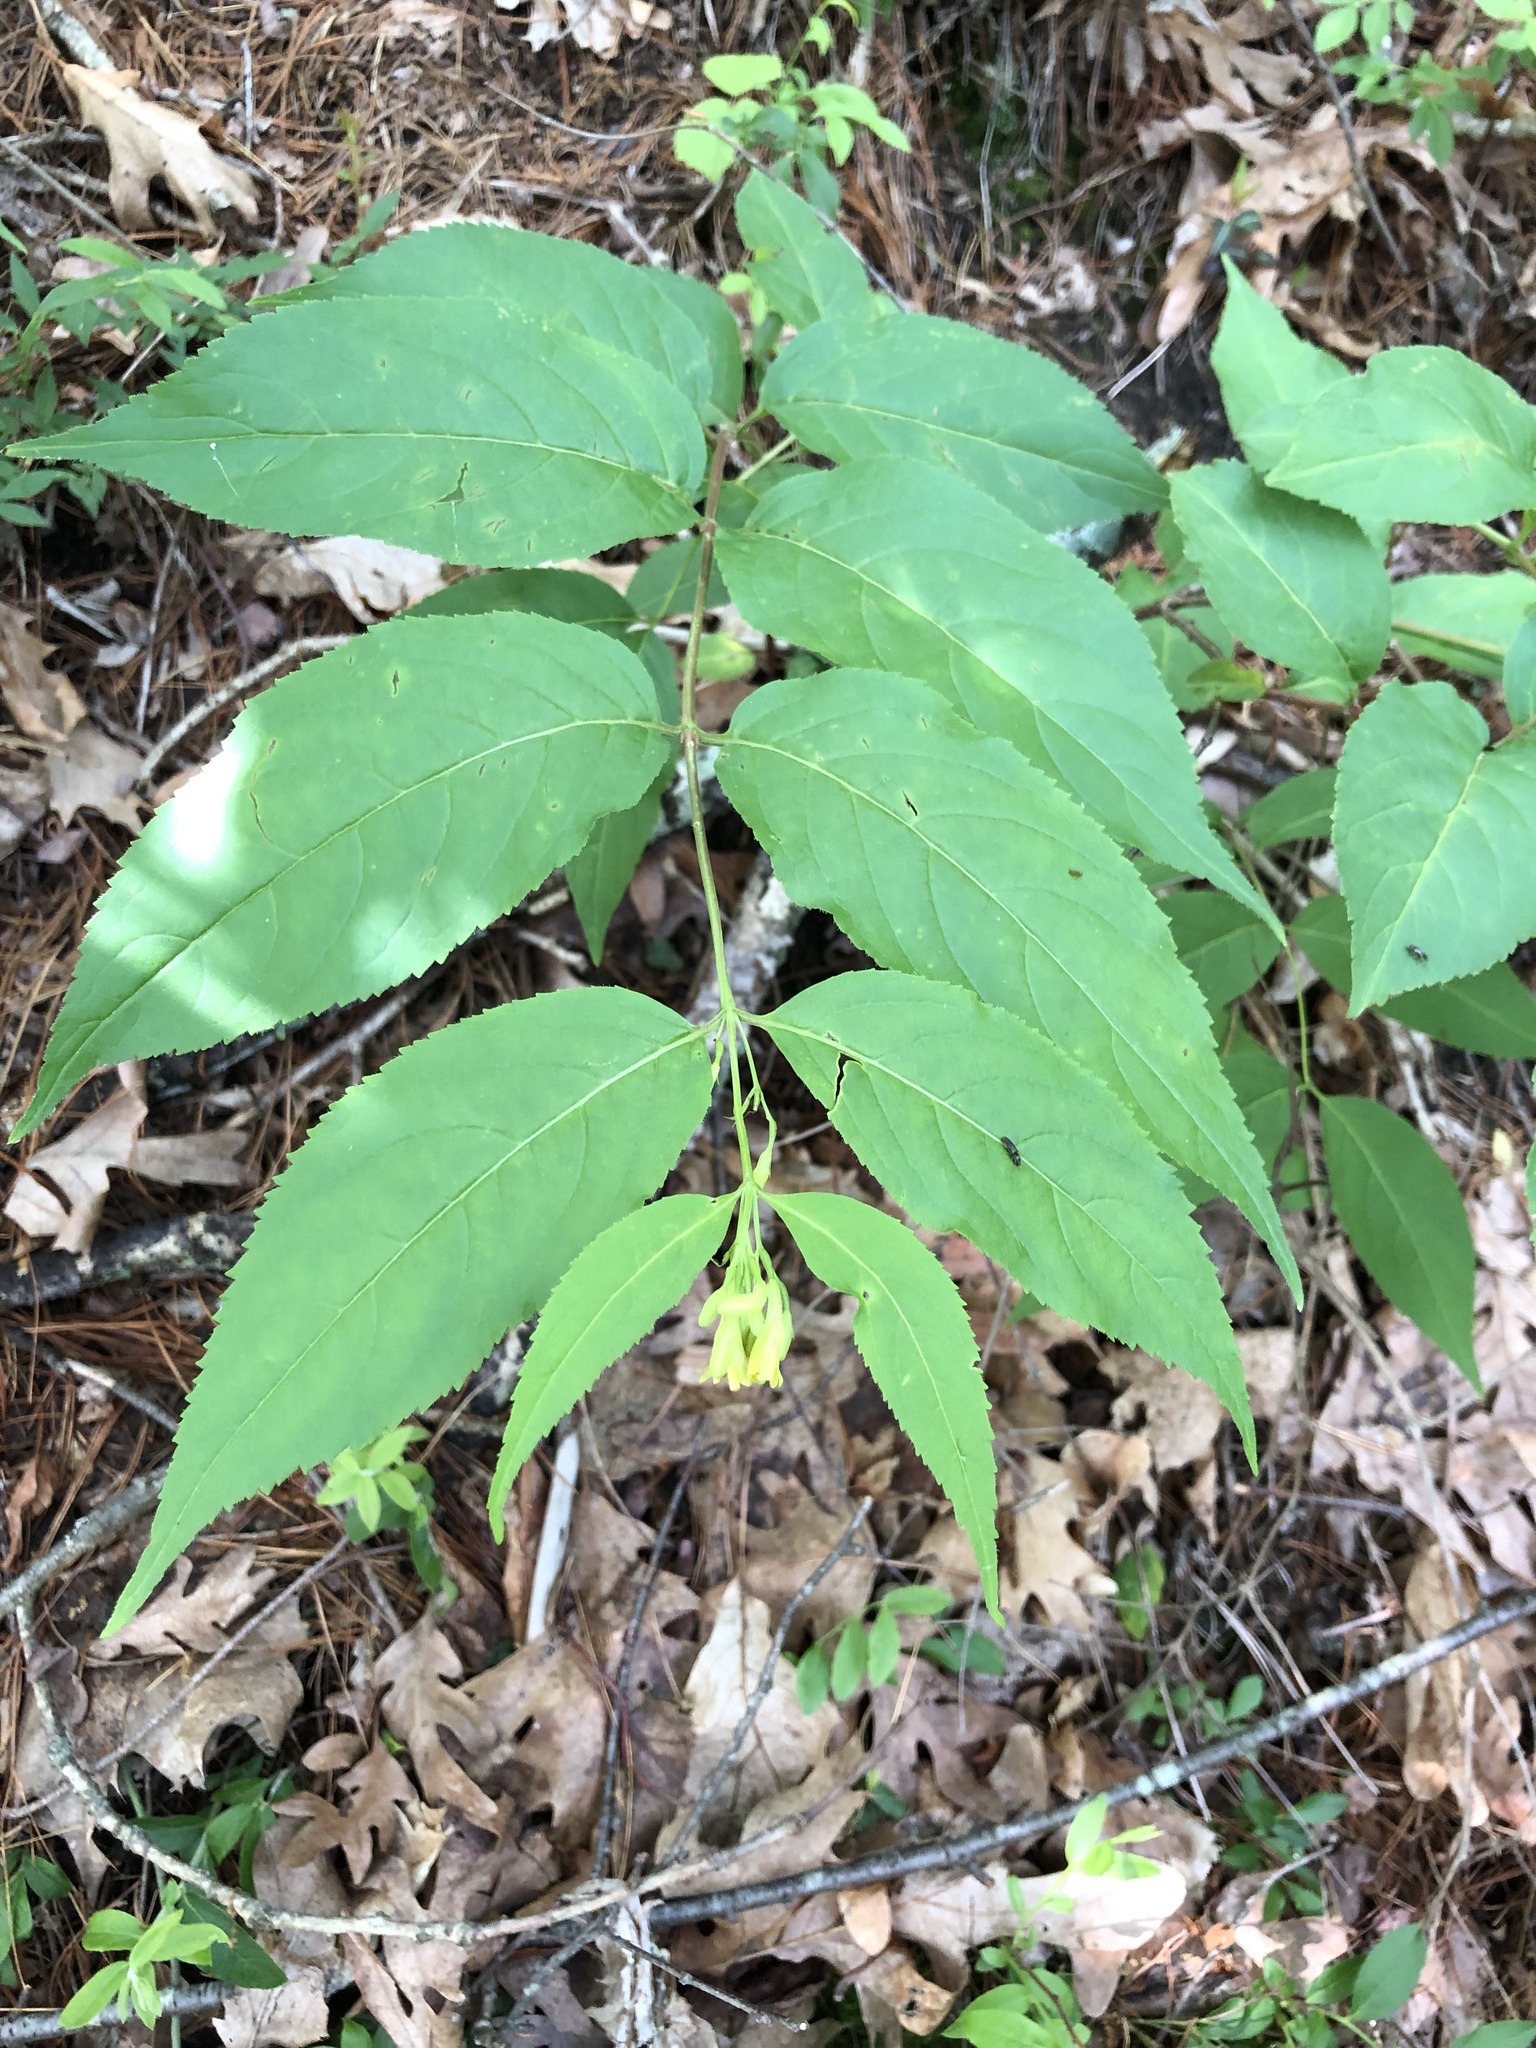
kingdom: Plantae
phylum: Tracheophyta
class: Magnoliopsida
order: Dipsacales
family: Caprifoliaceae
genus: Diervilla
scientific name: Diervilla lonicera
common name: Bush-honeysuckle
